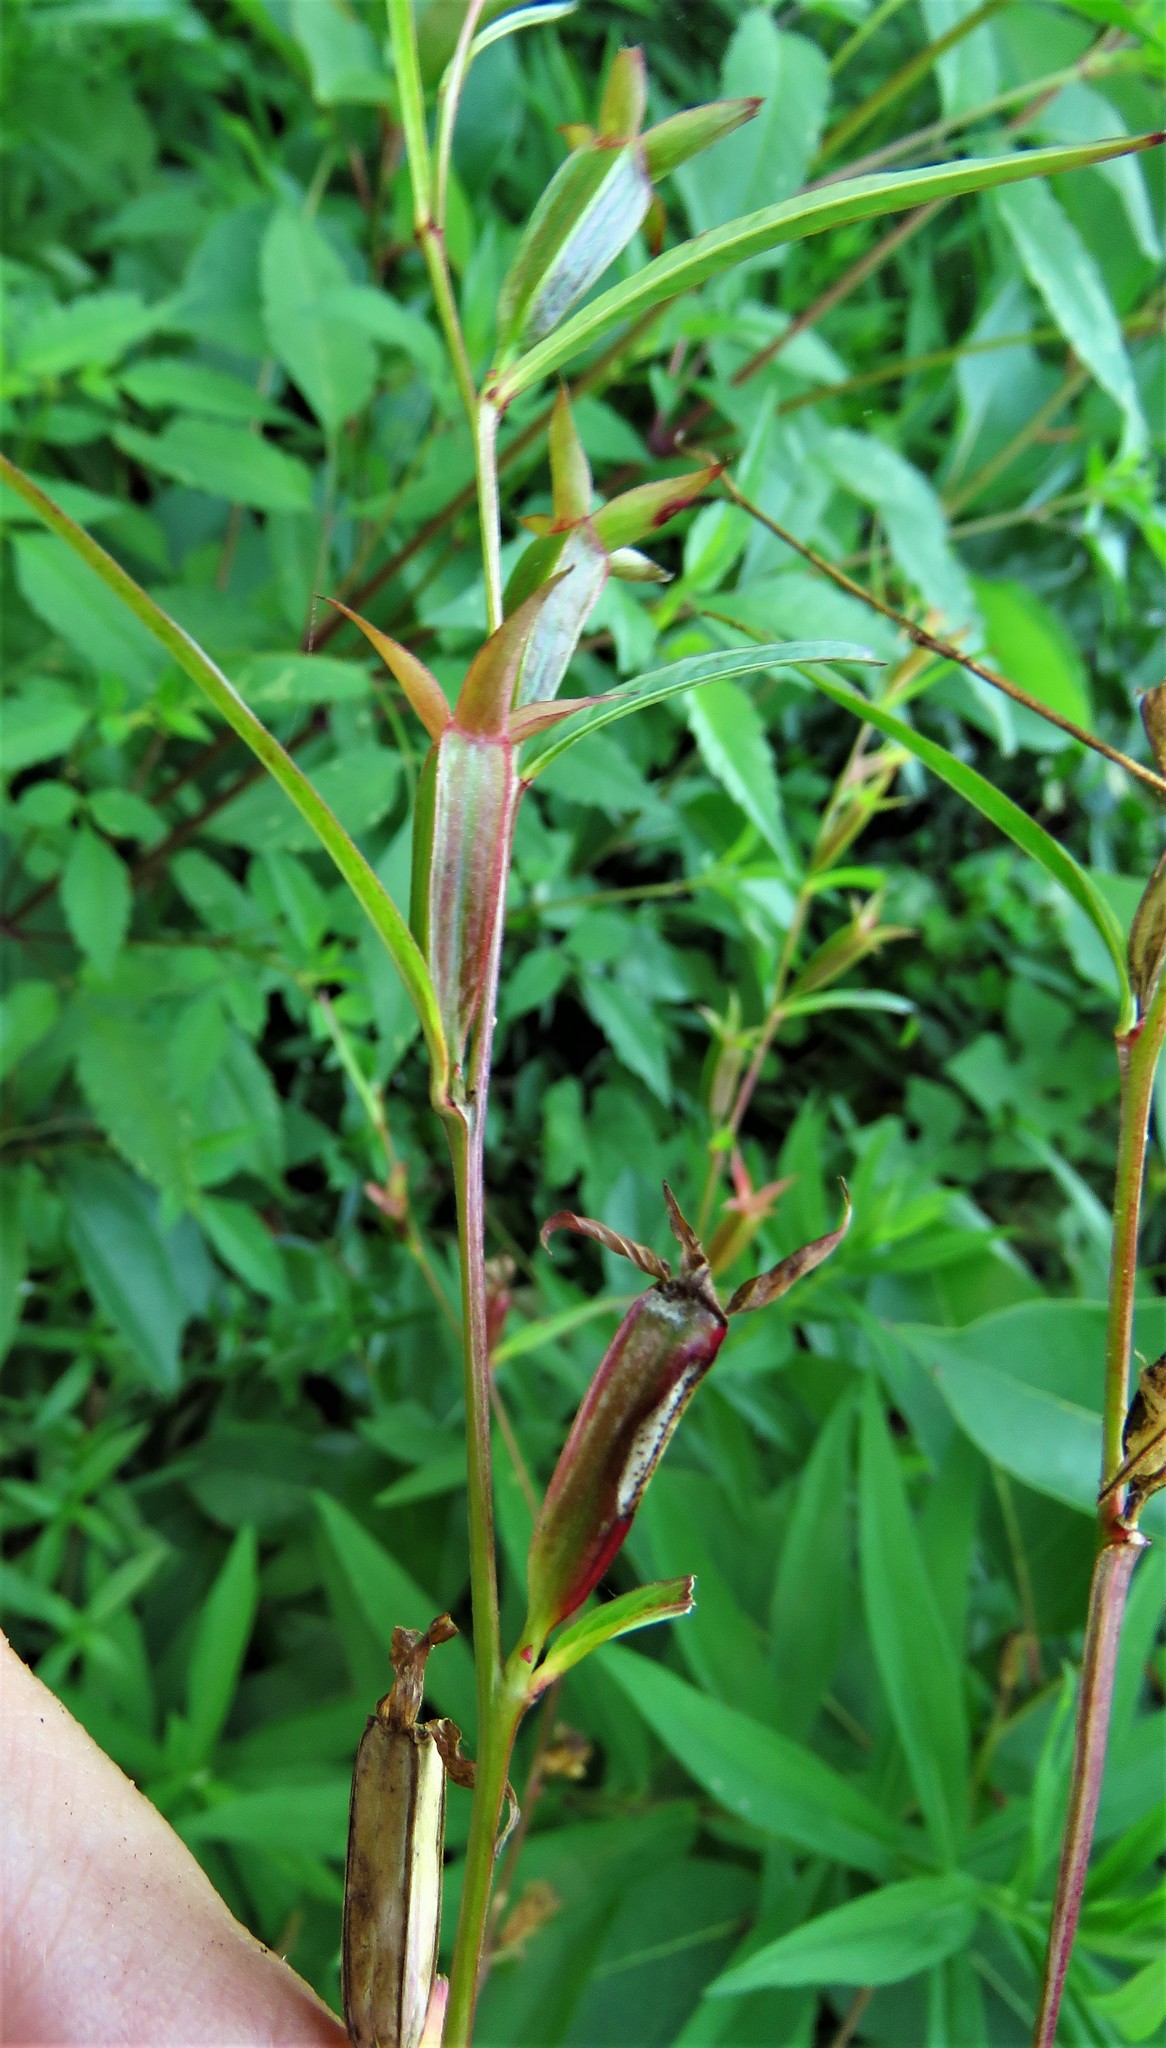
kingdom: Plantae
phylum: Tracheophyta
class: Magnoliopsida
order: Myrtales
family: Onagraceae
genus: Ludwigia
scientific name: Ludwigia decurrens
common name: Winged water-primrose
